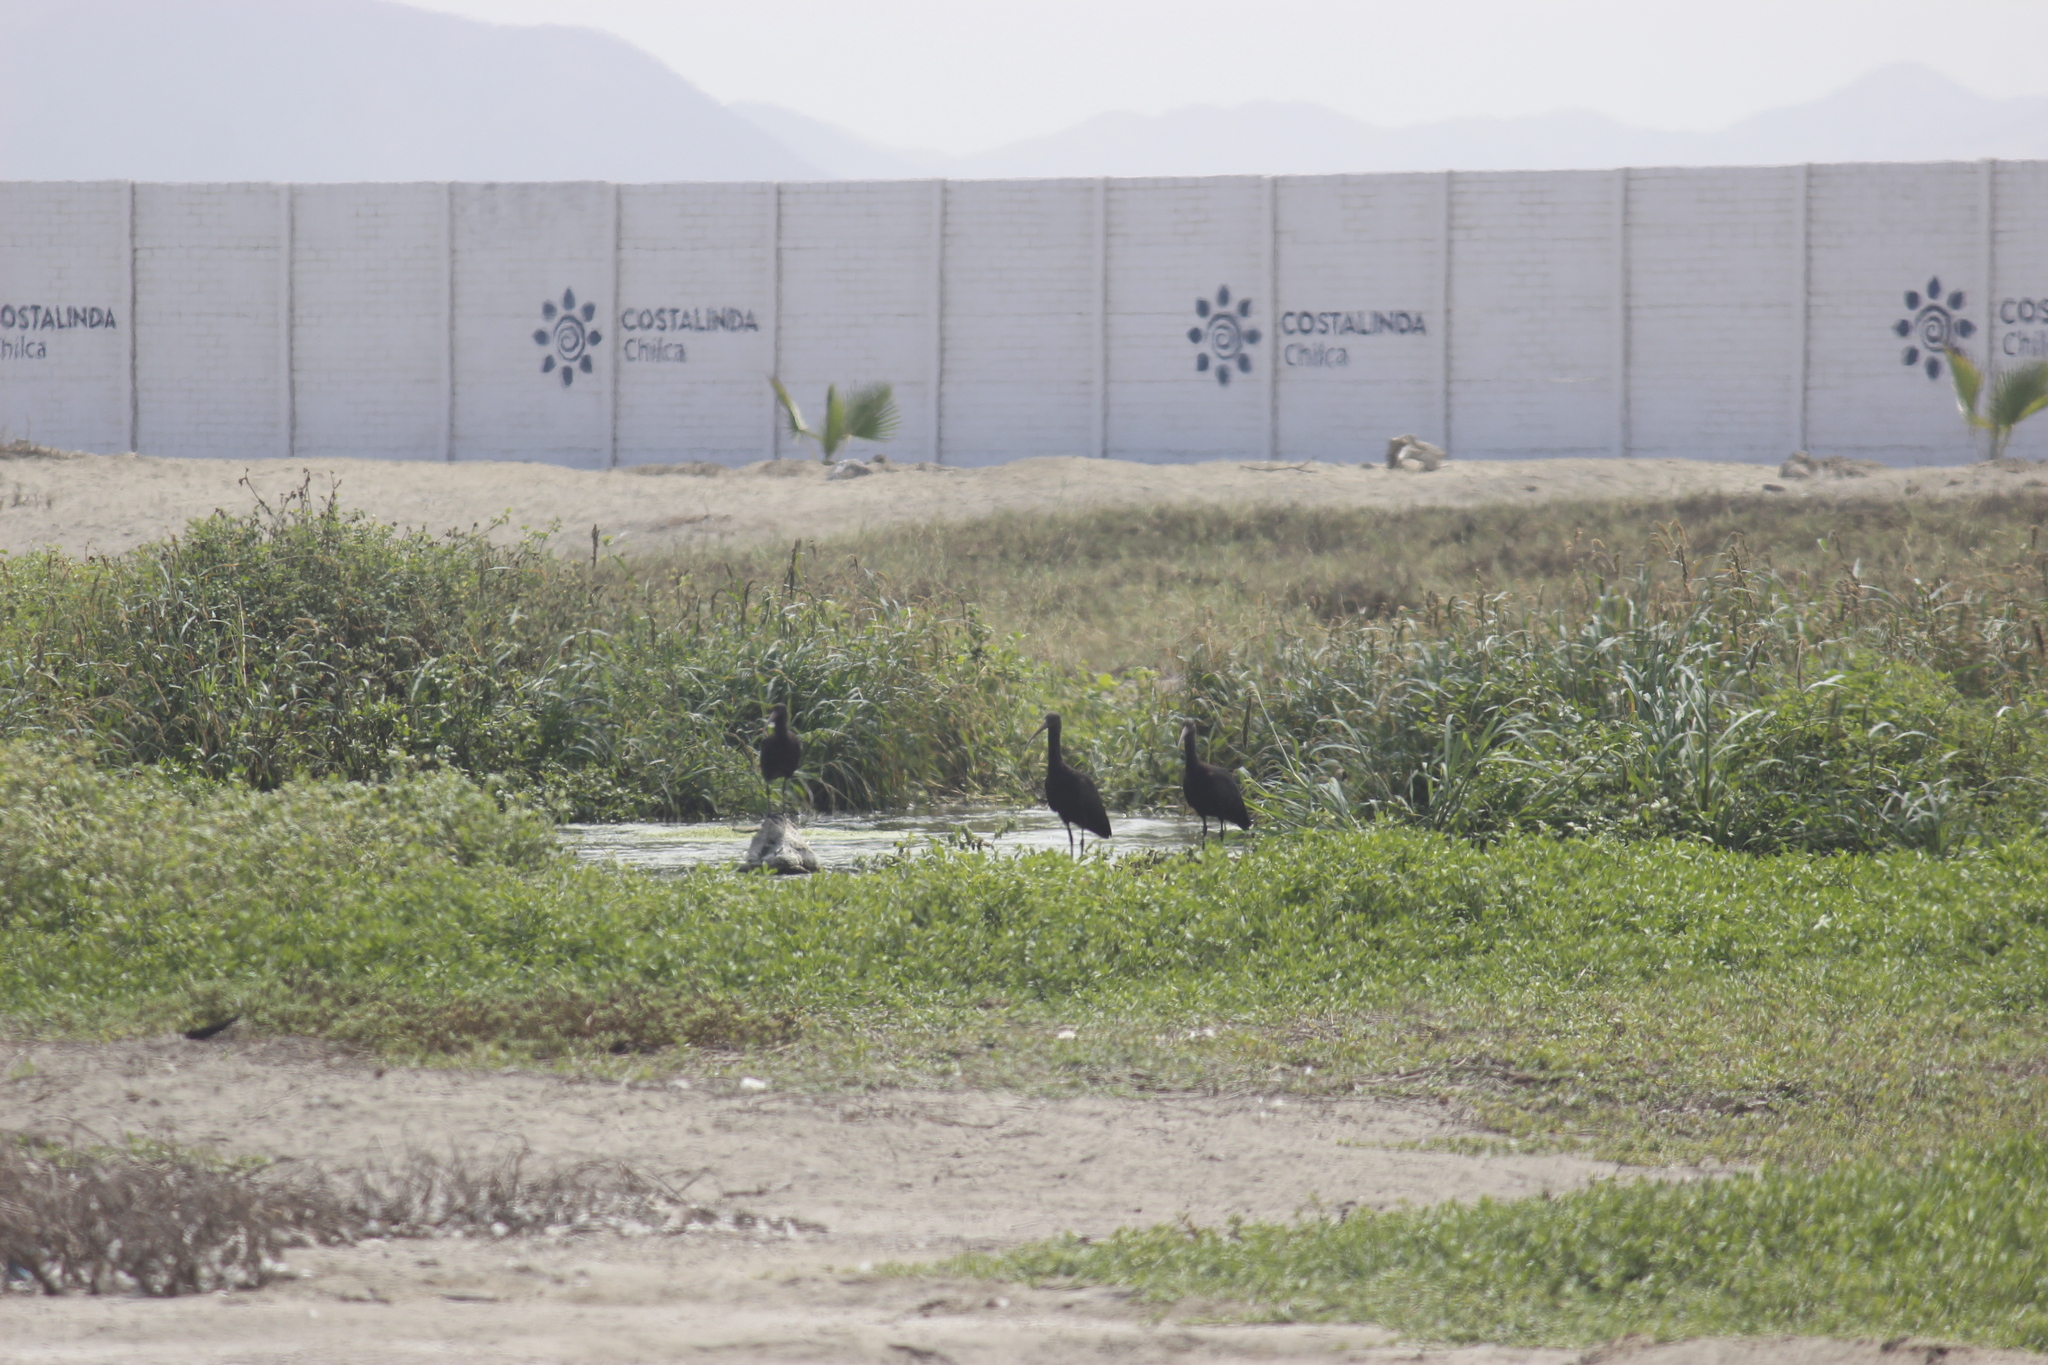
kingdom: Animalia
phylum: Chordata
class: Aves
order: Pelecaniformes
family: Threskiornithidae
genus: Plegadis
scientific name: Plegadis ridgwayi
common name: Puna ibis
